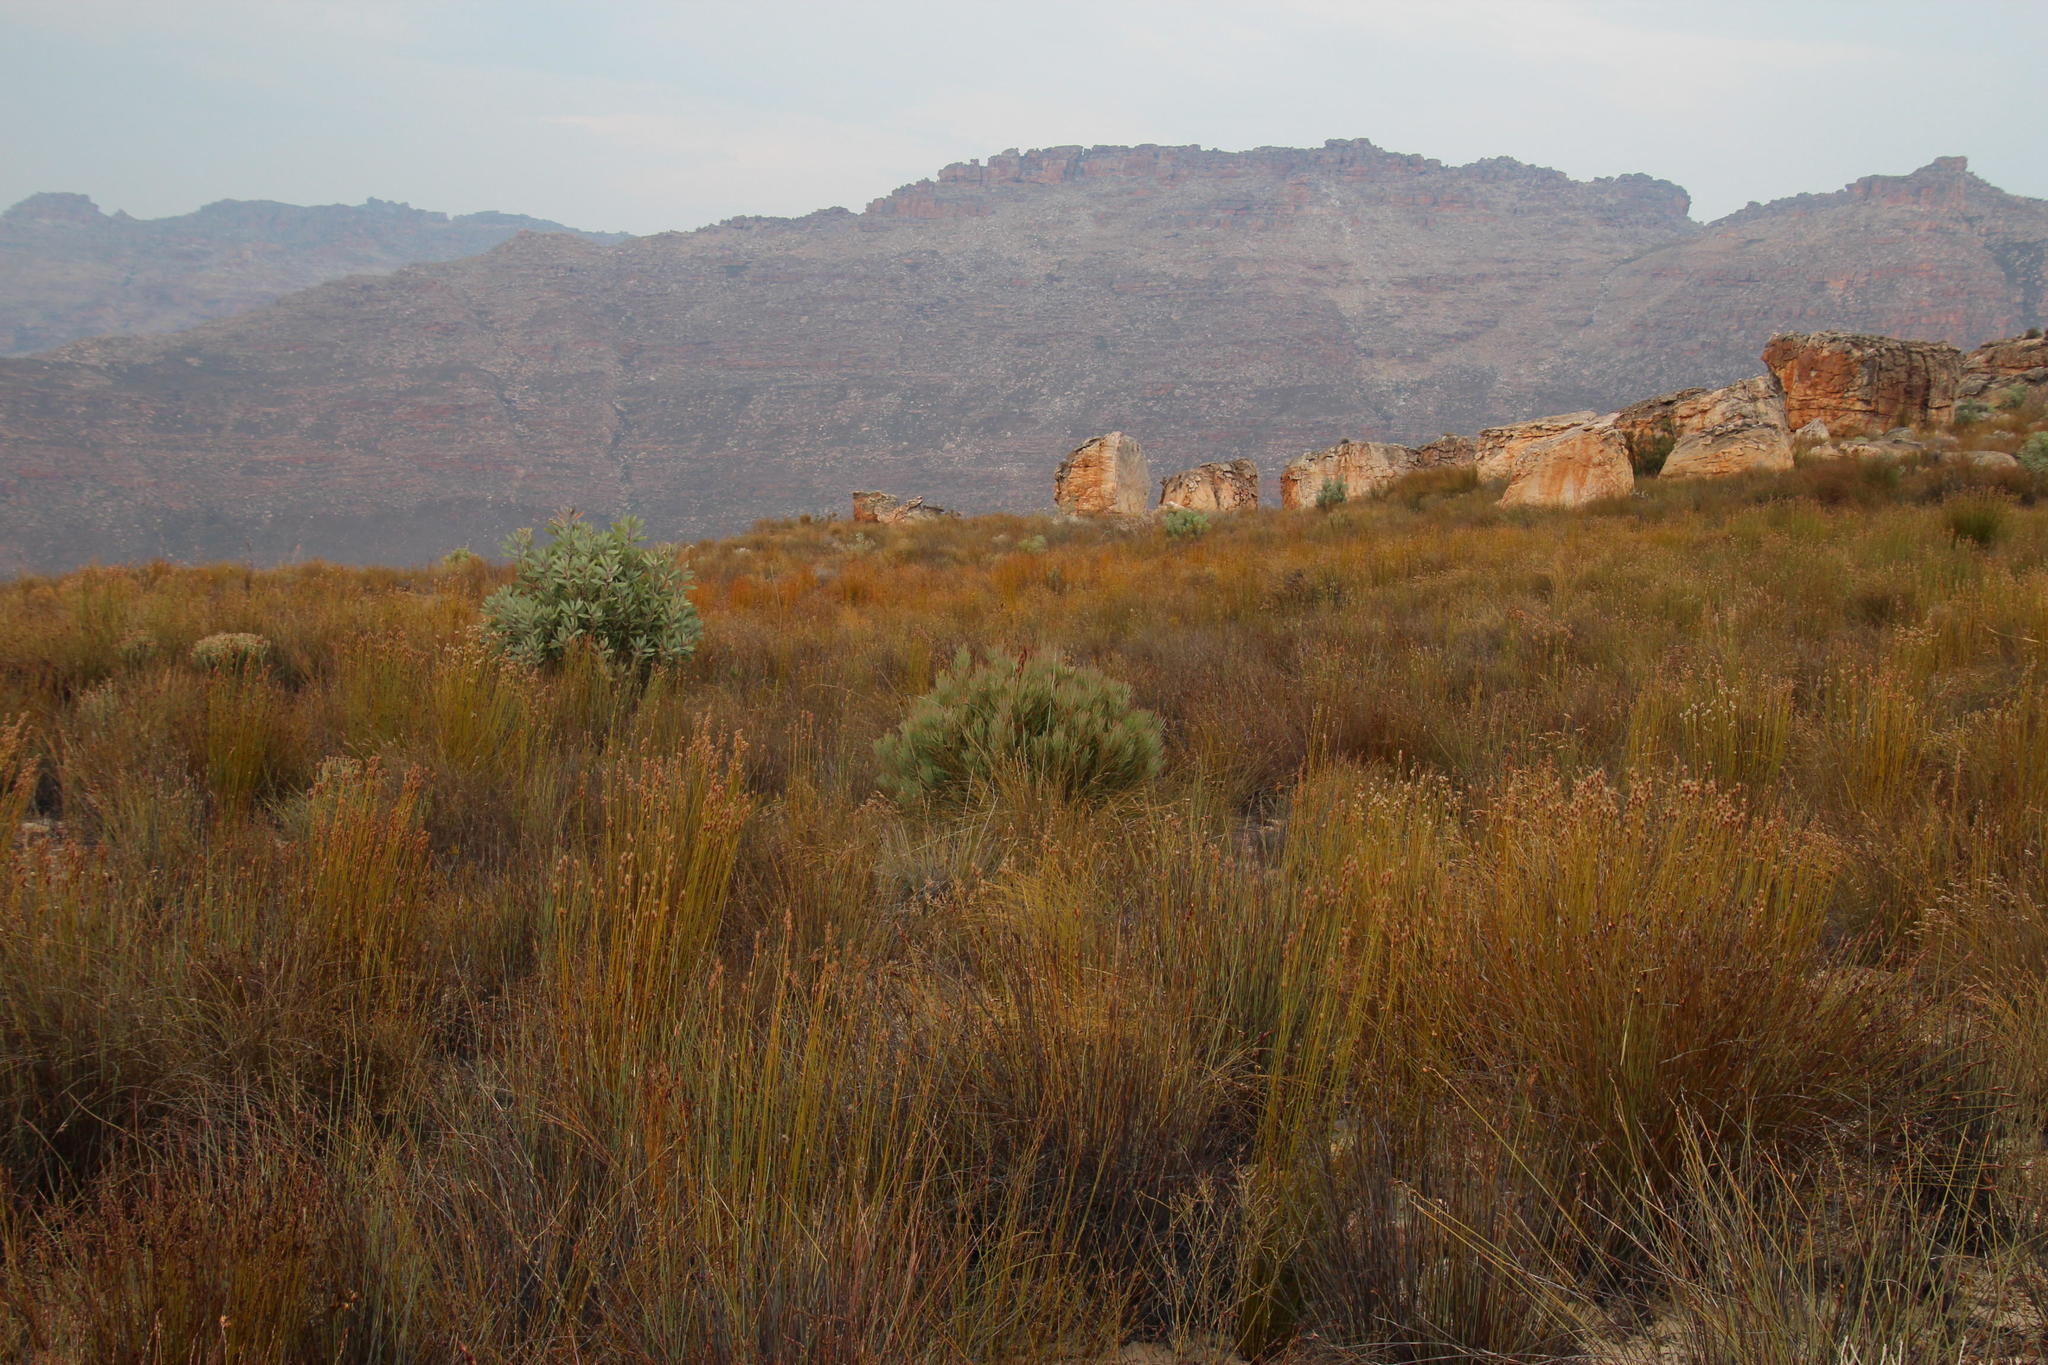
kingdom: Plantae
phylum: Tracheophyta
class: Magnoliopsida
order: Proteales
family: Proteaceae
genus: Protea
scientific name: Protea acuminata
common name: Black-rim sugarbush
